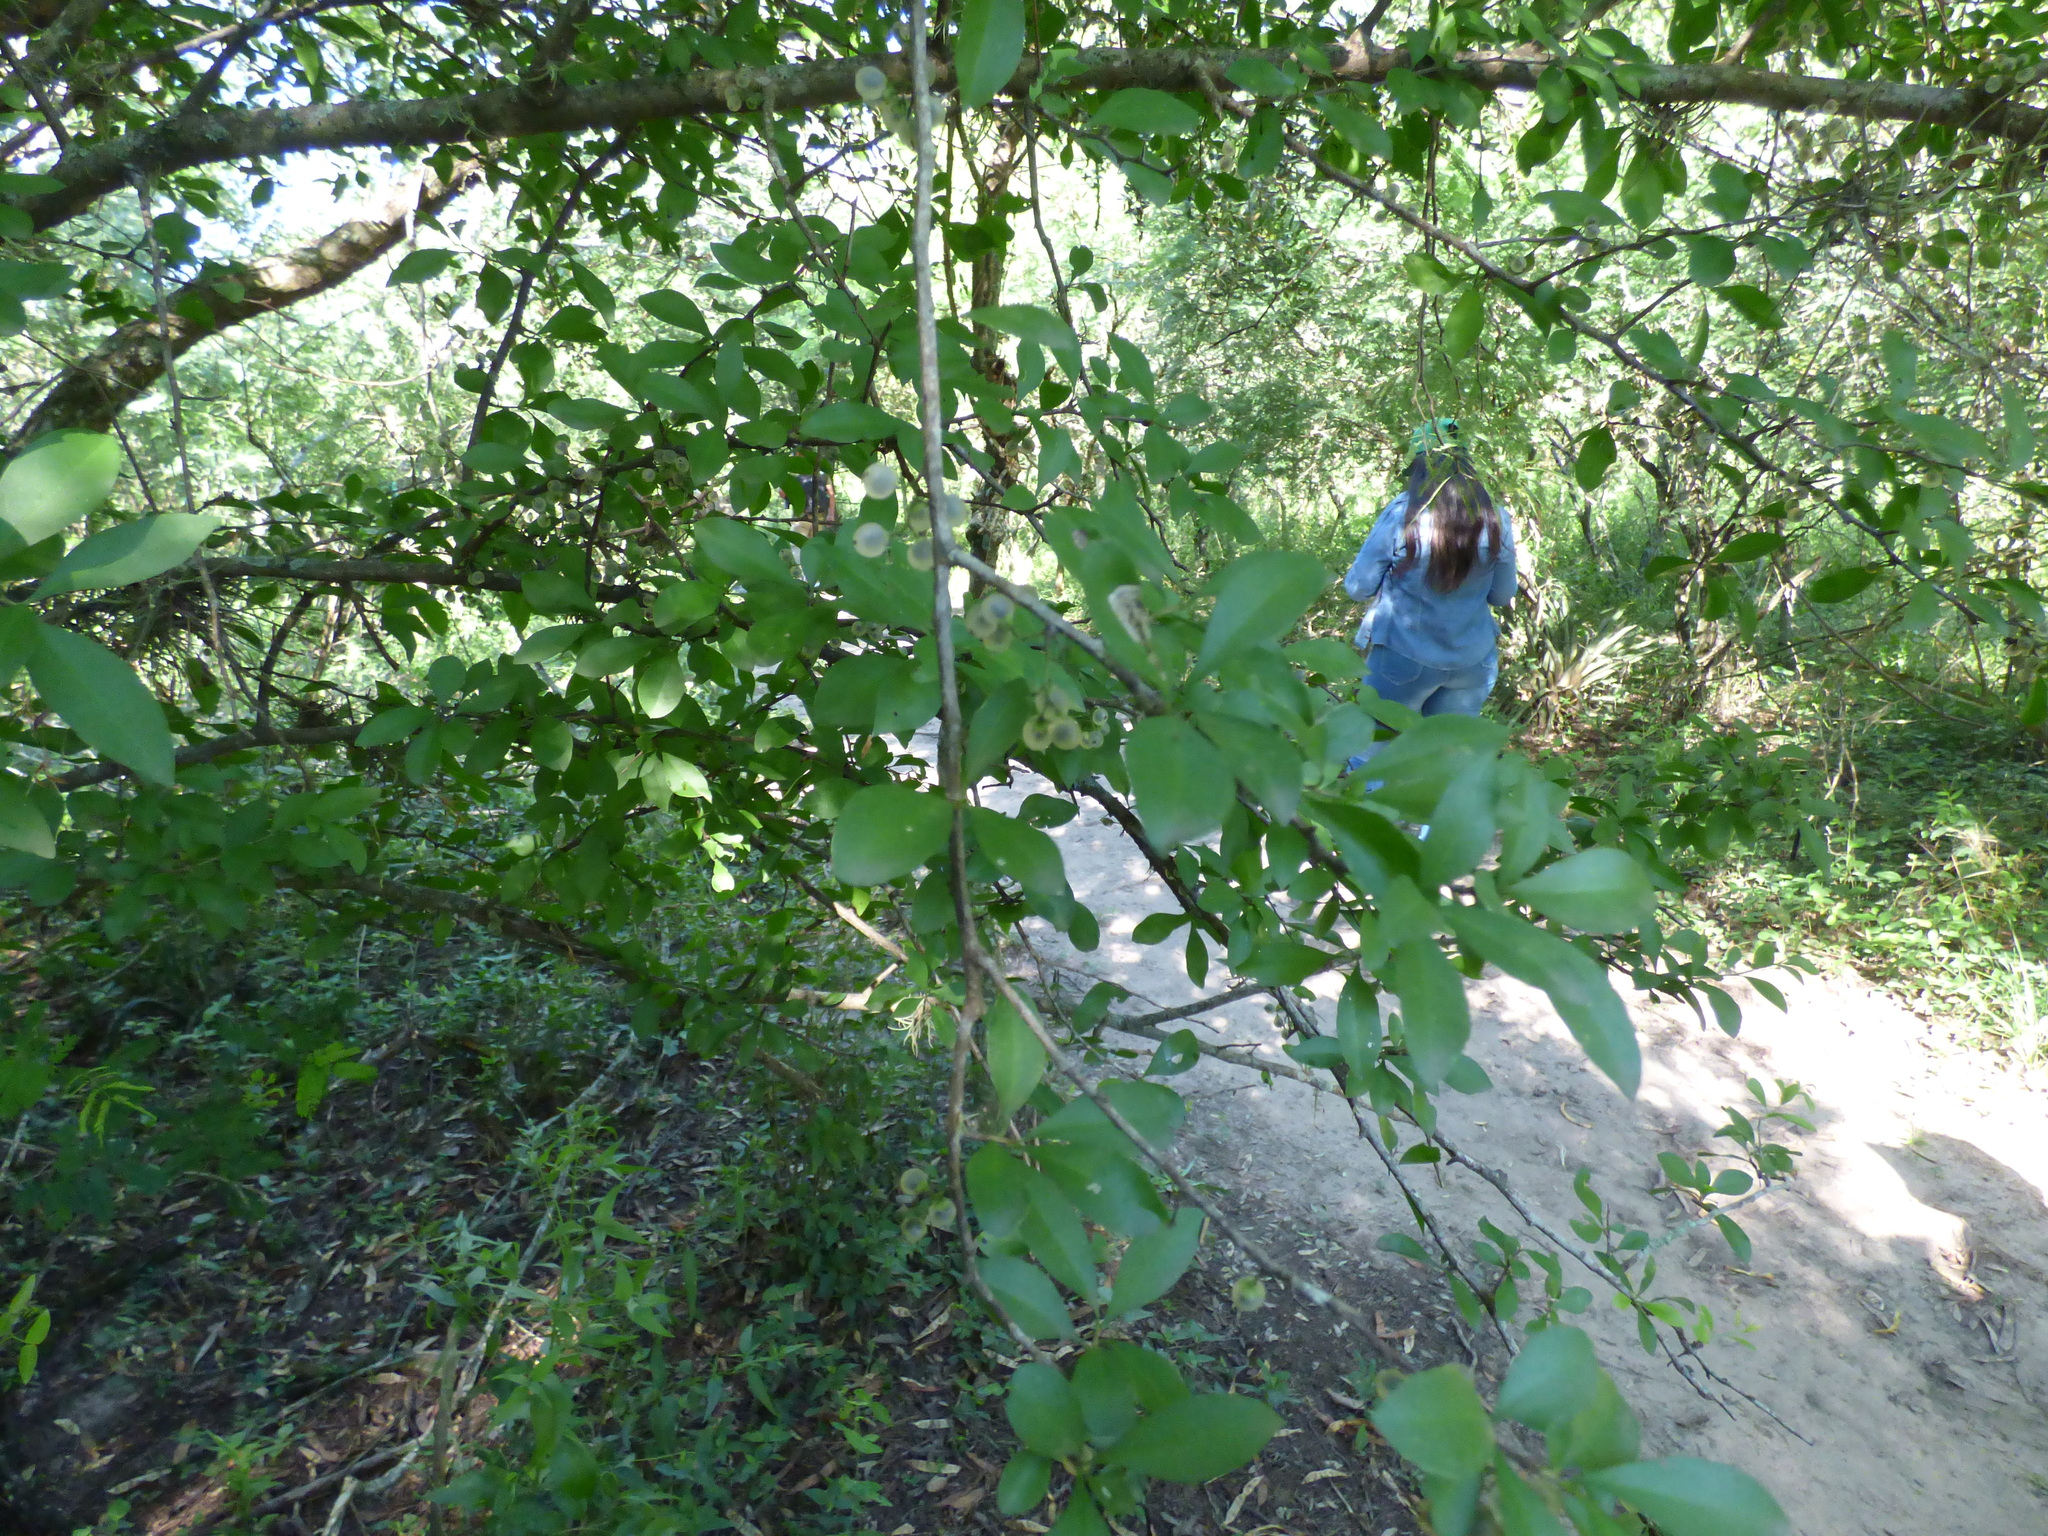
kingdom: Plantae
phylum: Tracheophyta
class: Magnoliopsida
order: Caryophyllales
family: Achatocarpaceae
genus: Achatocarpus
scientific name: Achatocarpus praecox
